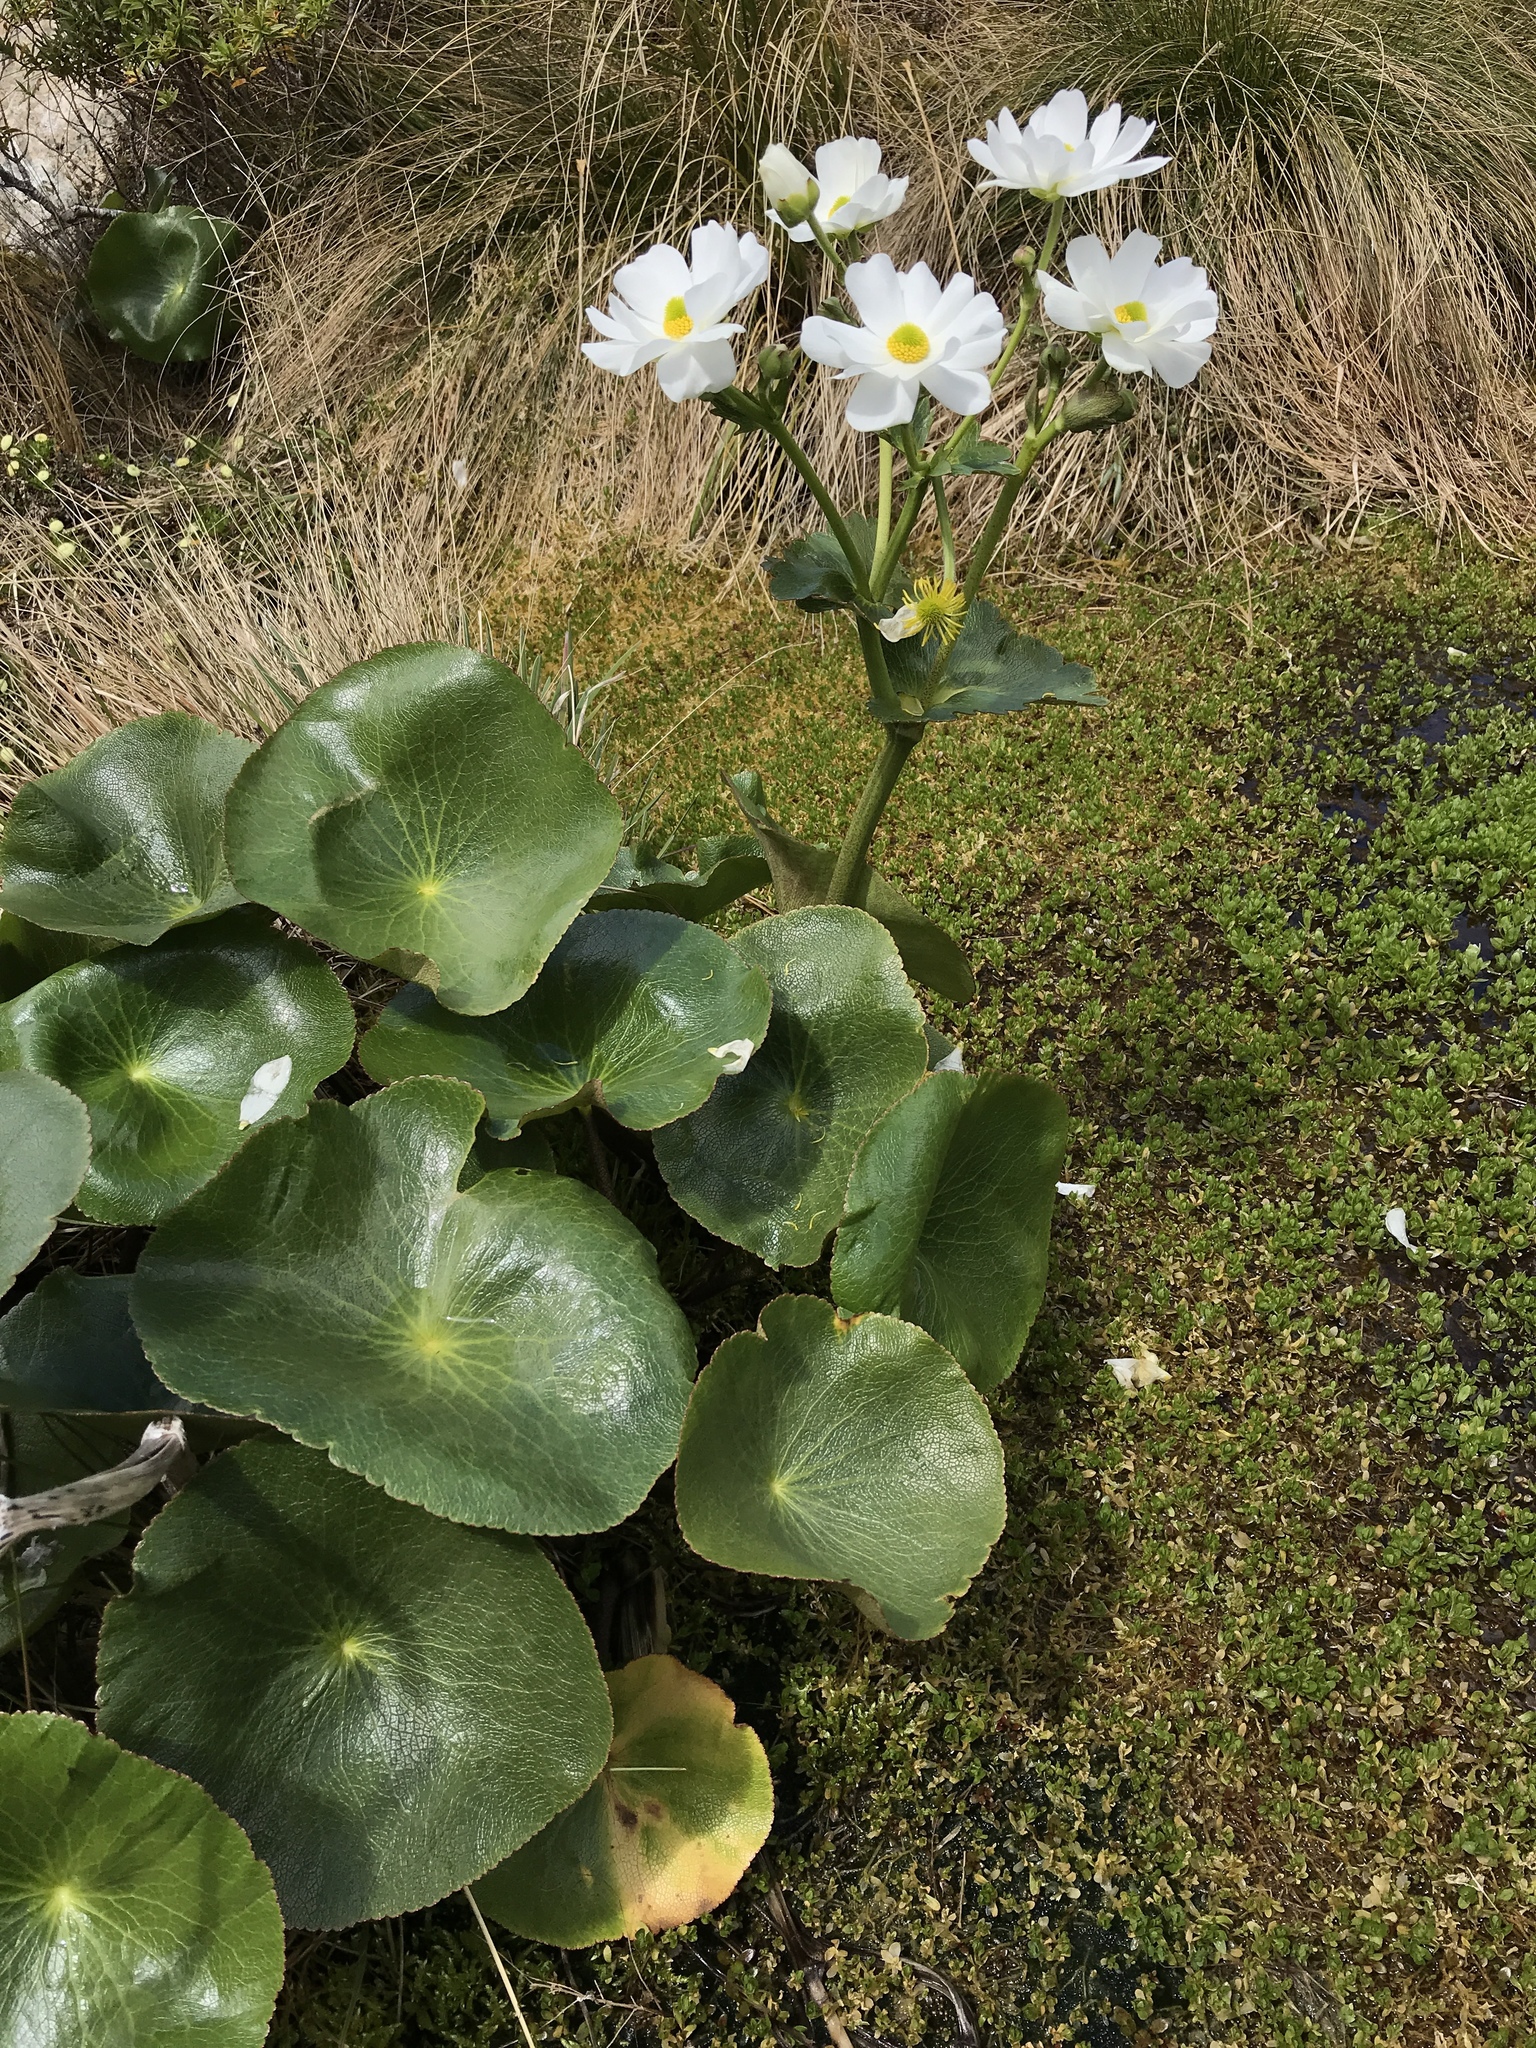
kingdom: Plantae
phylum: Tracheophyta
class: Magnoliopsida
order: Ranunculales
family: Ranunculaceae
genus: Ranunculus
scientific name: Ranunculus lyallii
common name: Mountain-lily
